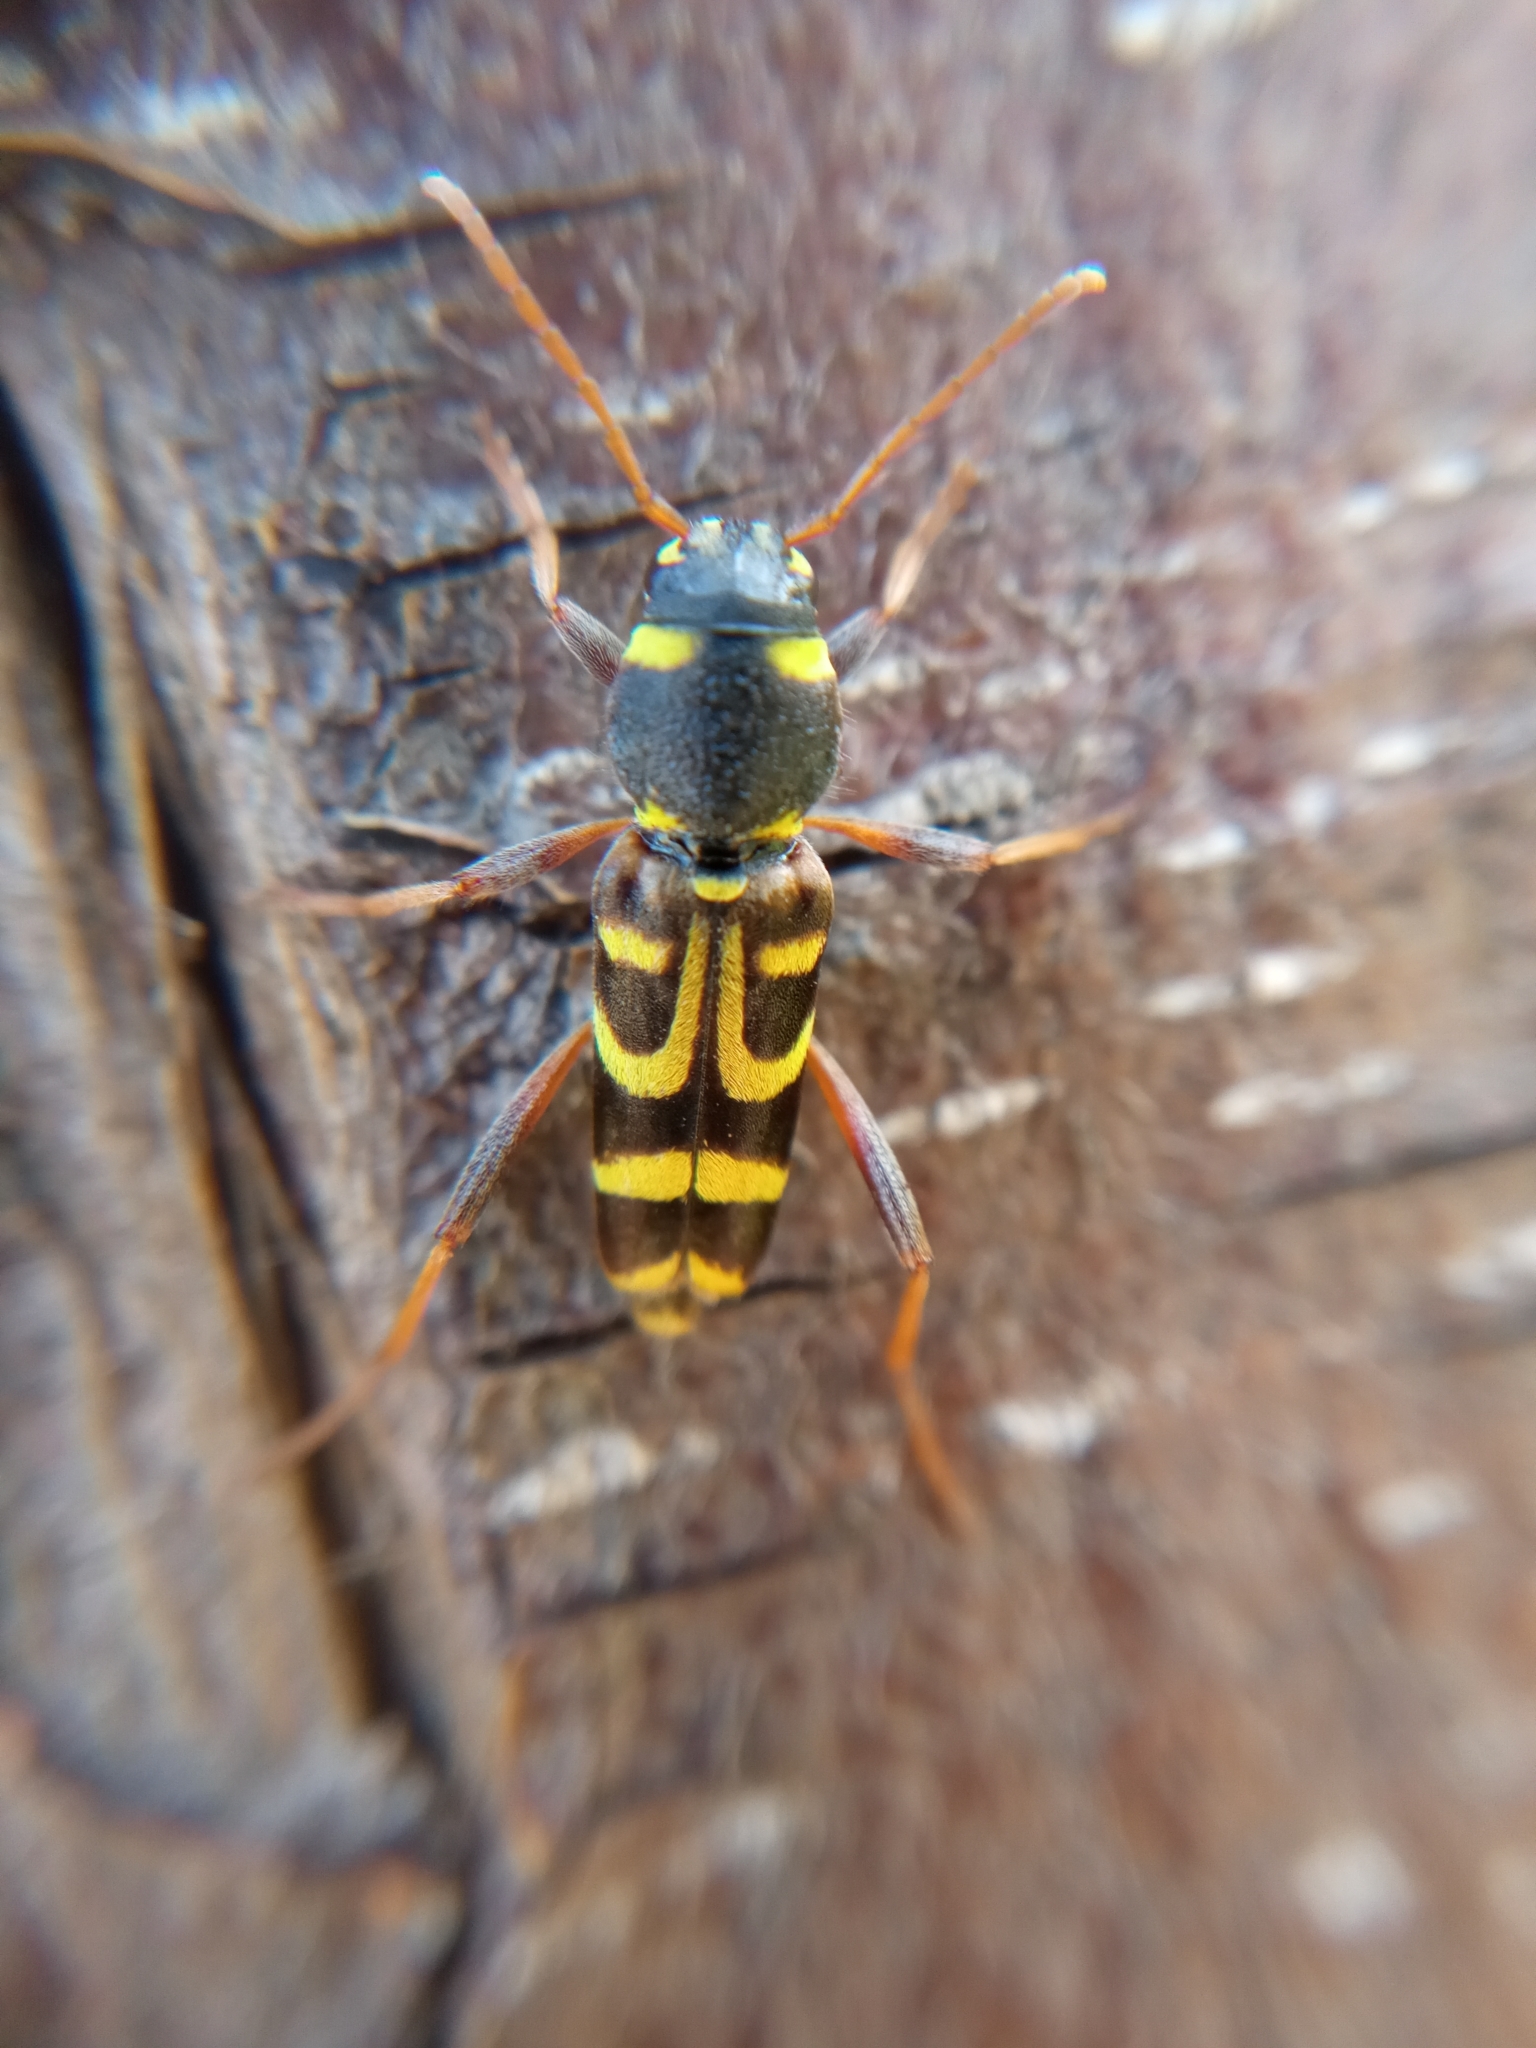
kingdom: Animalia
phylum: Arthropoda
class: Insecta
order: Coleoptera
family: Cerambycidae
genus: Xylotrechus
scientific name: Xylotrechus arvicola
